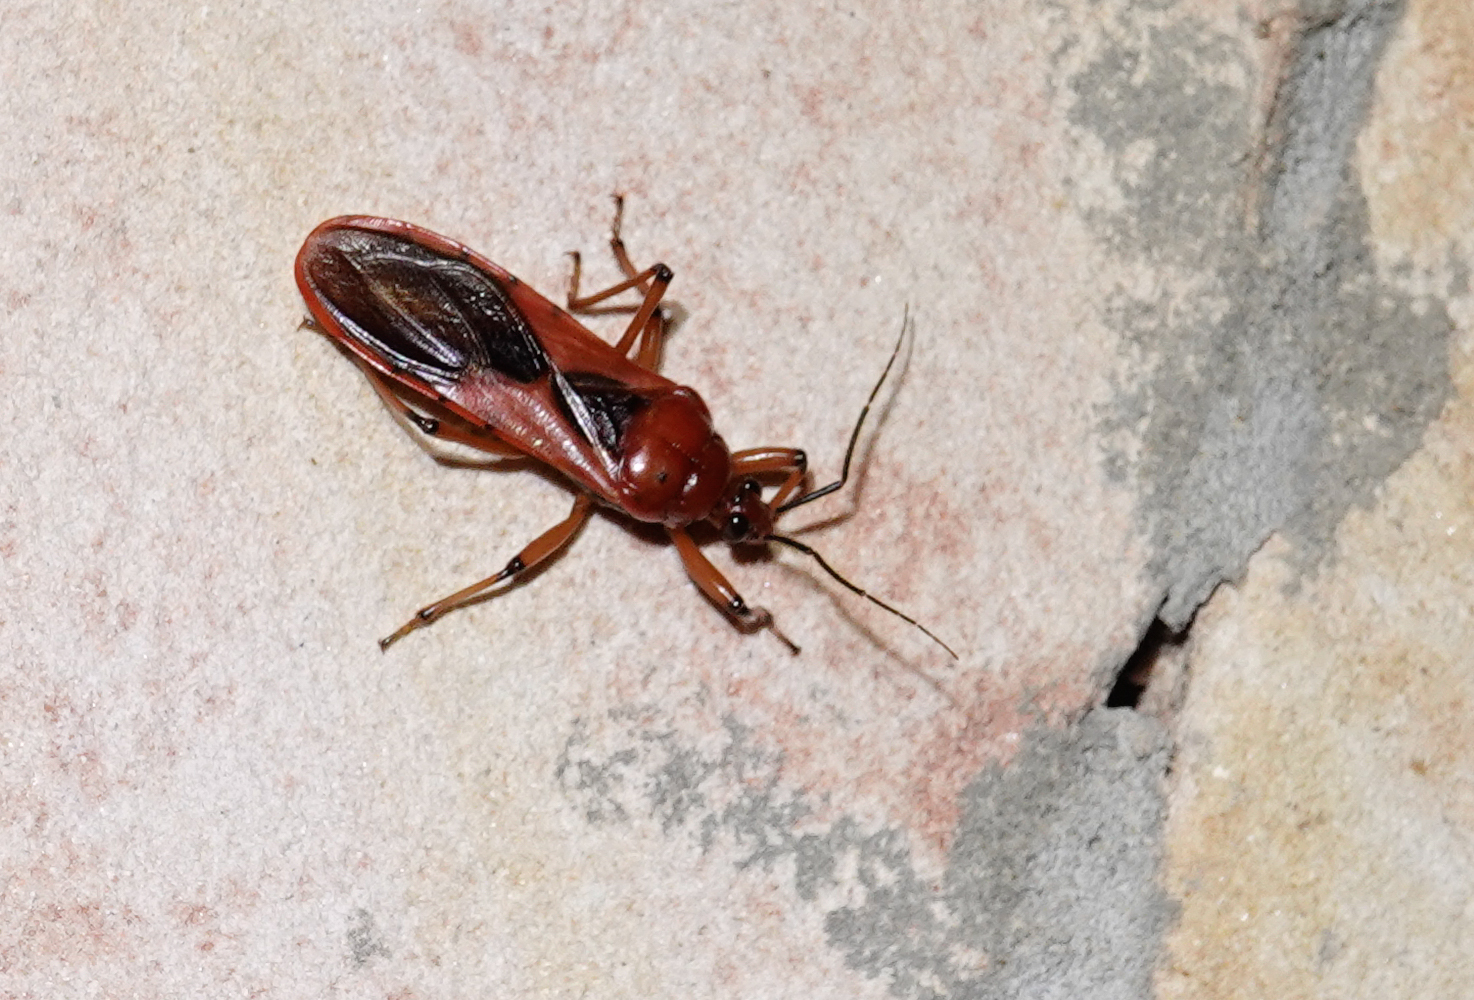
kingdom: Animalia
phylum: Arthropoda
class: Insecta
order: Hemiptera
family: Reduviidae
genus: Brontostoma
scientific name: Brontostoma rubrum
